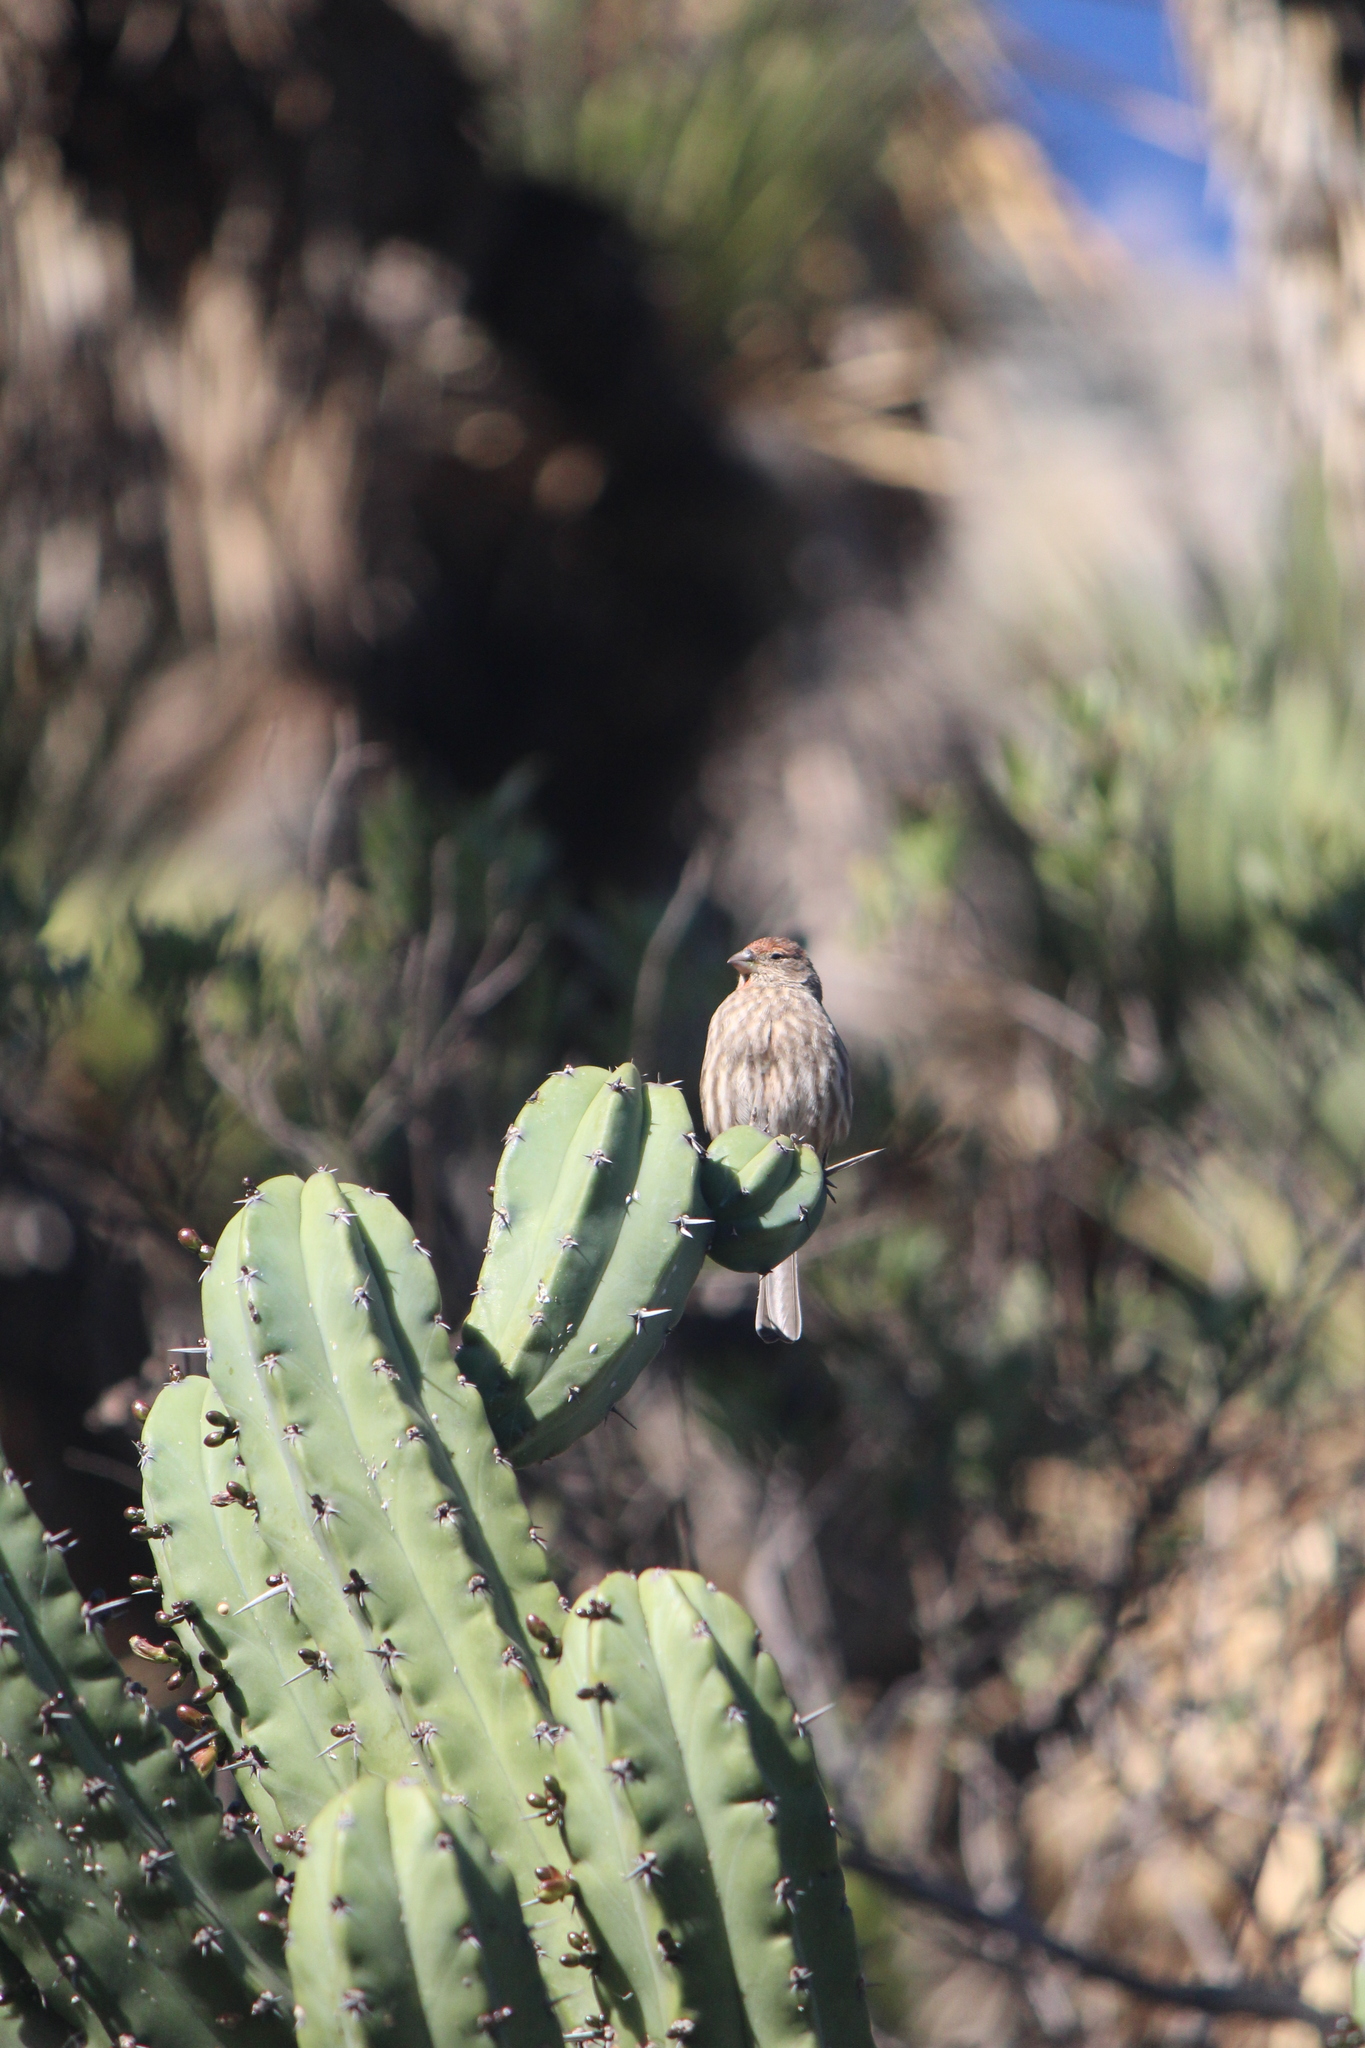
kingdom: Animalia
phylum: Chordata
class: Aves
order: Passeriformes
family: Fringillidae
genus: Haemorhous
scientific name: Haemorhous mexicanus
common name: House finch
